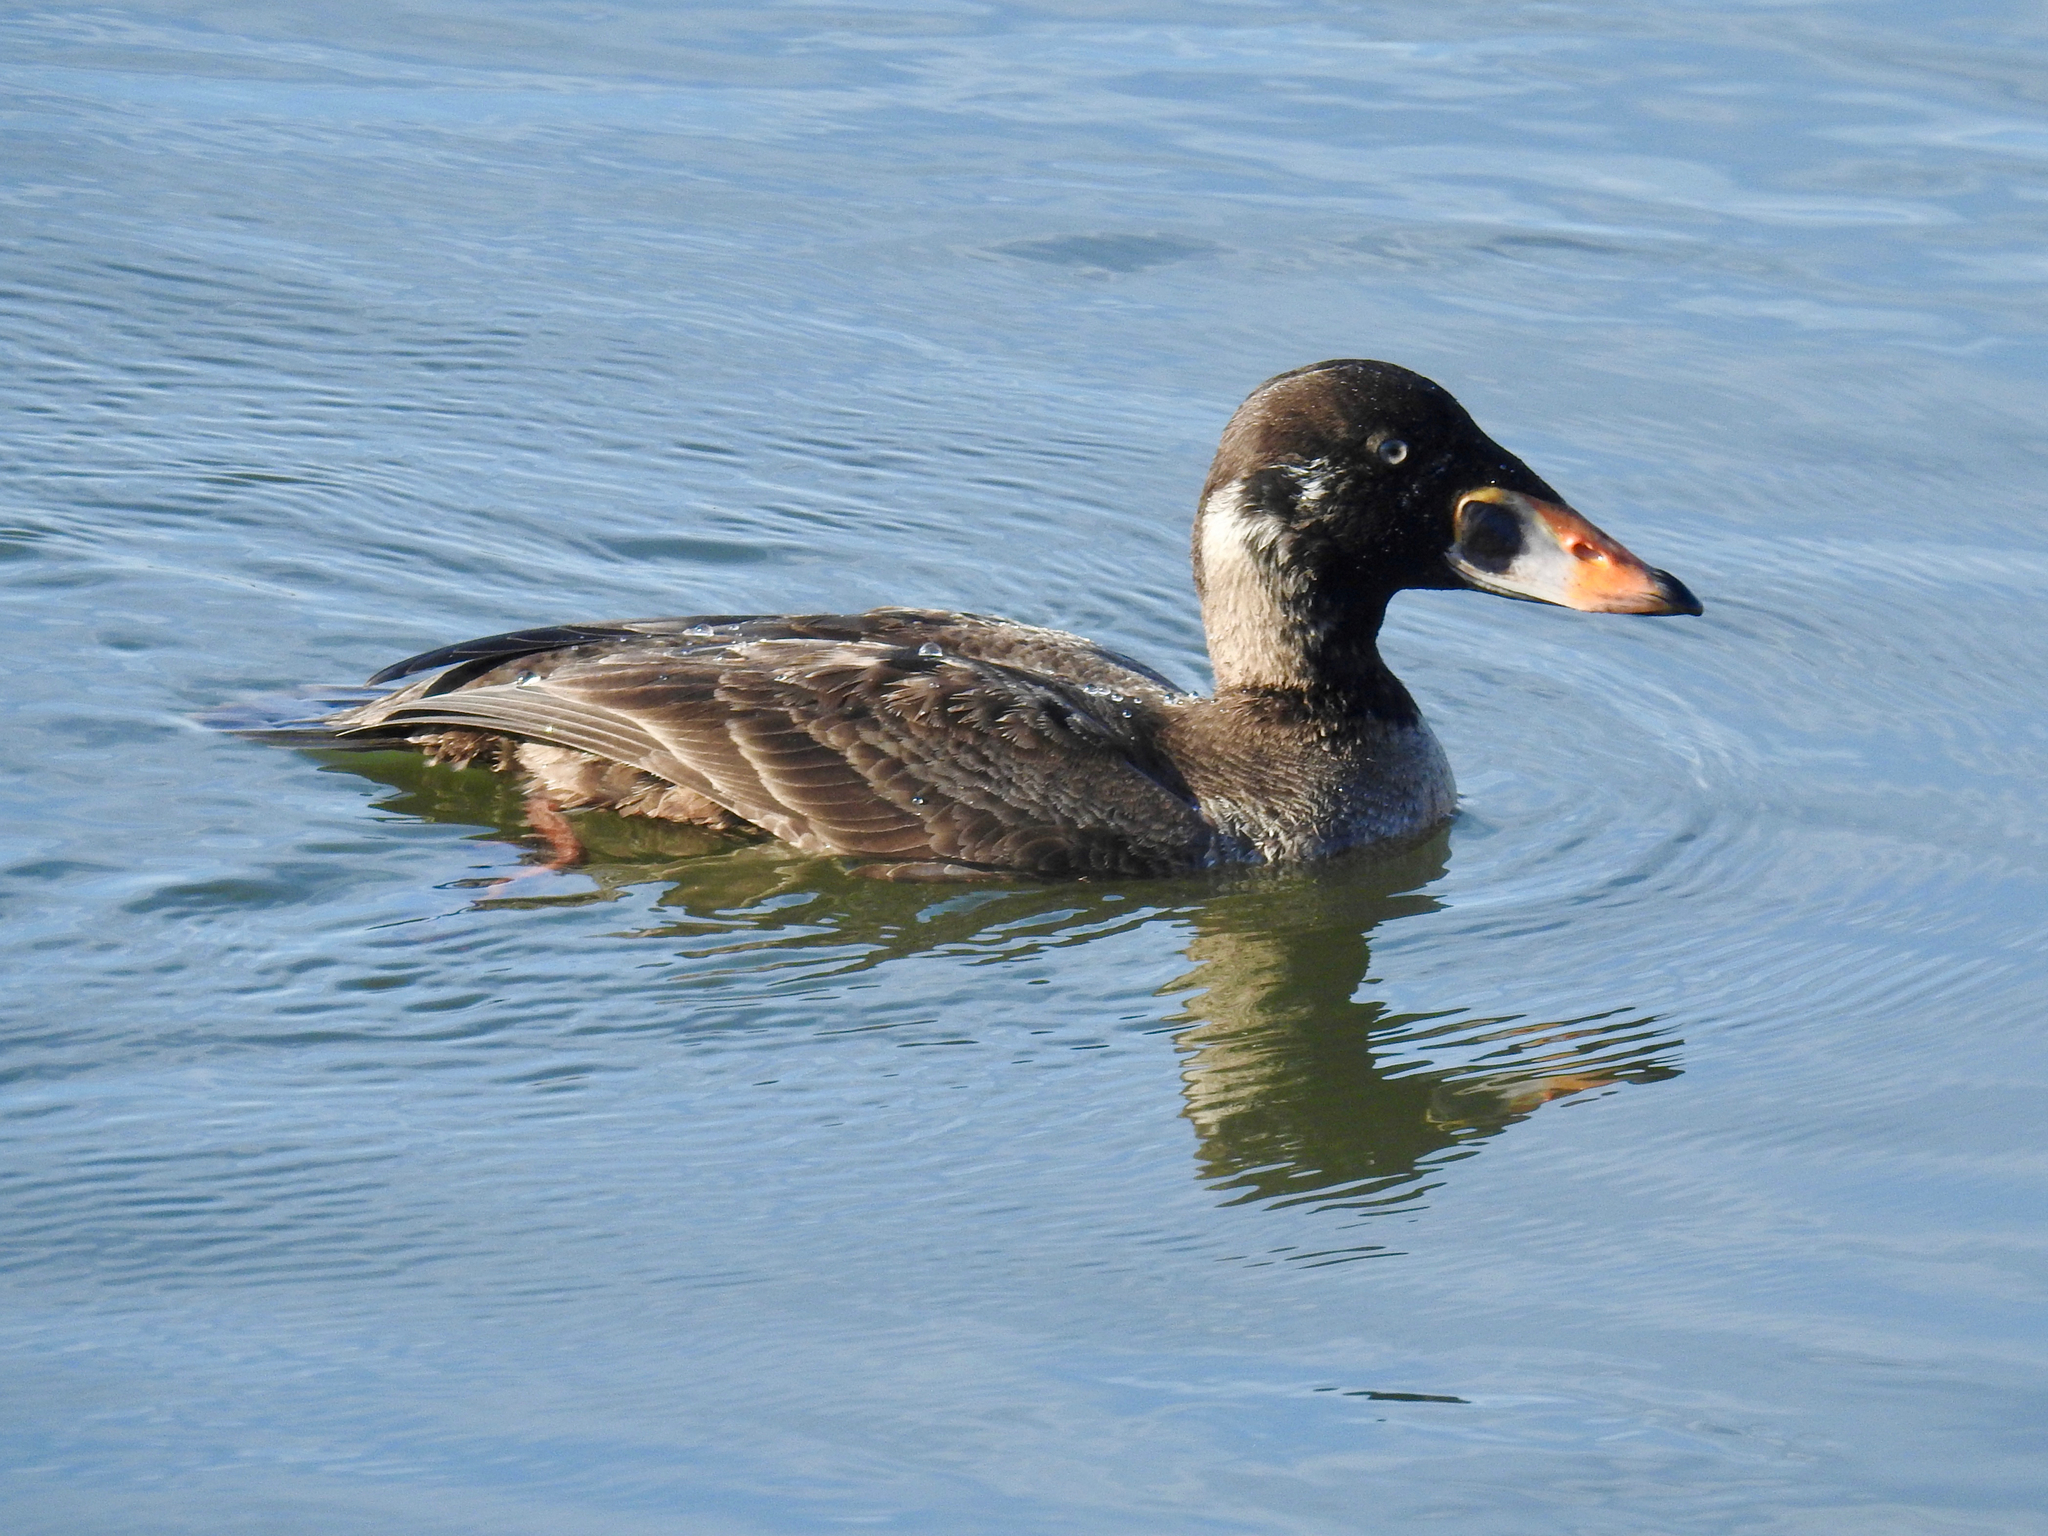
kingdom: Animalia
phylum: Chordata
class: Aves
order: Anseriformes
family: Anatidae
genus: Melanitta
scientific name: Melanitta perspicillata
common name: Surf scoter
